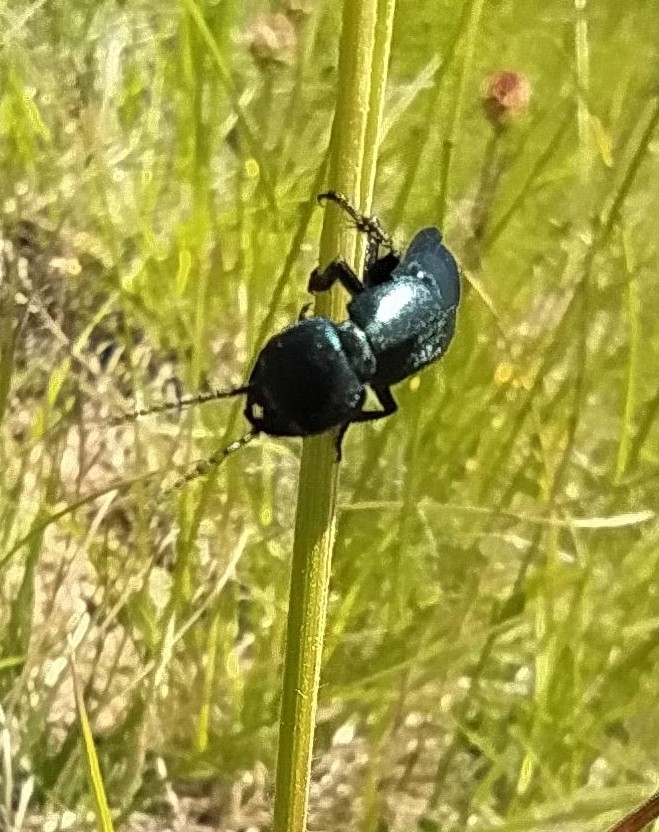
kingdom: Animalia
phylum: Arthropoda
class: Insecta
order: Coleoptera
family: Staphylinidae
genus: Ocypus
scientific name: Ocypus ophthalmicus
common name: Blue rove-beetle
